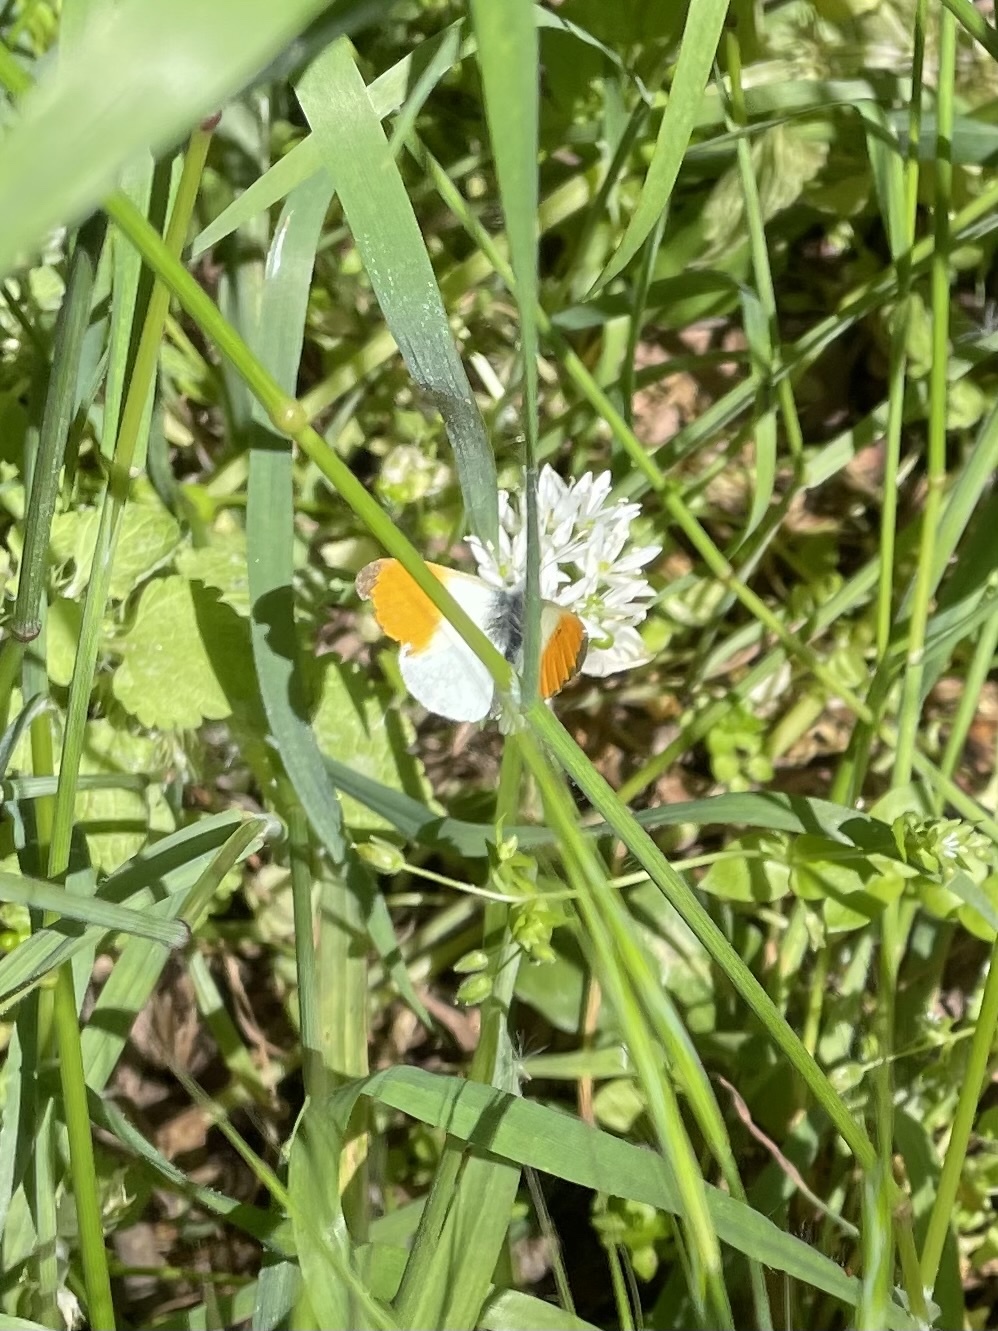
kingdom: Animalia
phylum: Arthropoda
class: Insecta
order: Lepidoptera
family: Pieridae
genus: Anthocharis
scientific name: Anthocharis cardamines
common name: Orange-tip
